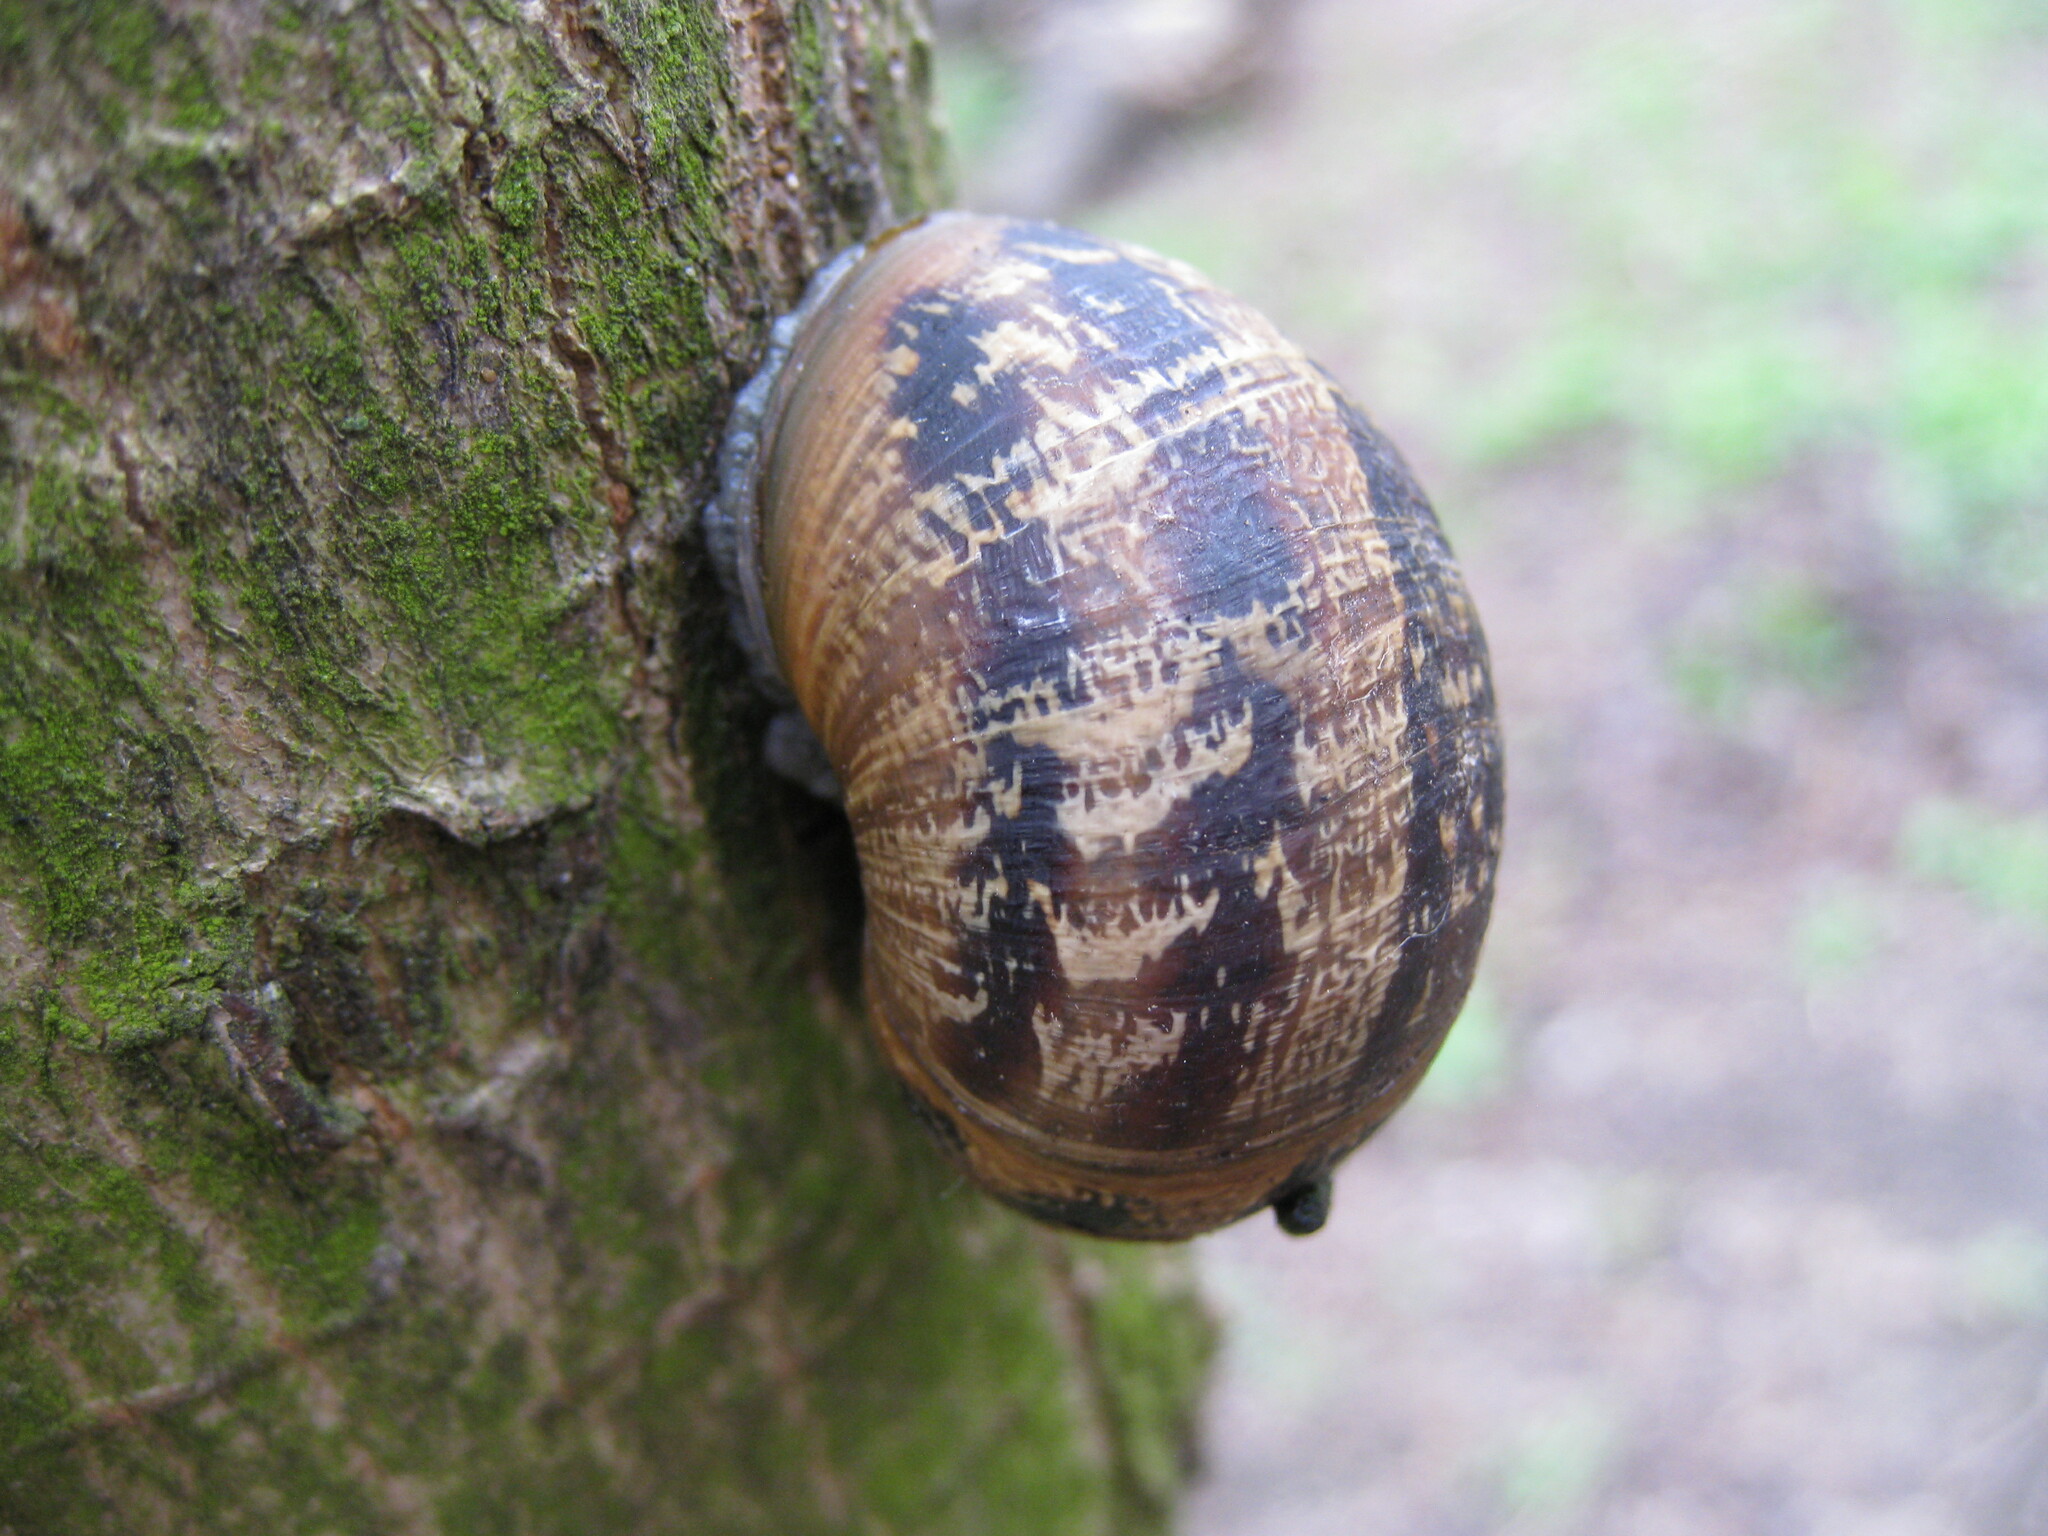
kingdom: Animalia
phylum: Mollusca
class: Gastropoda
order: Stylommatophora
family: Helicidae
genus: Cornu
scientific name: Cornu aspersum
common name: Brown garden snail
